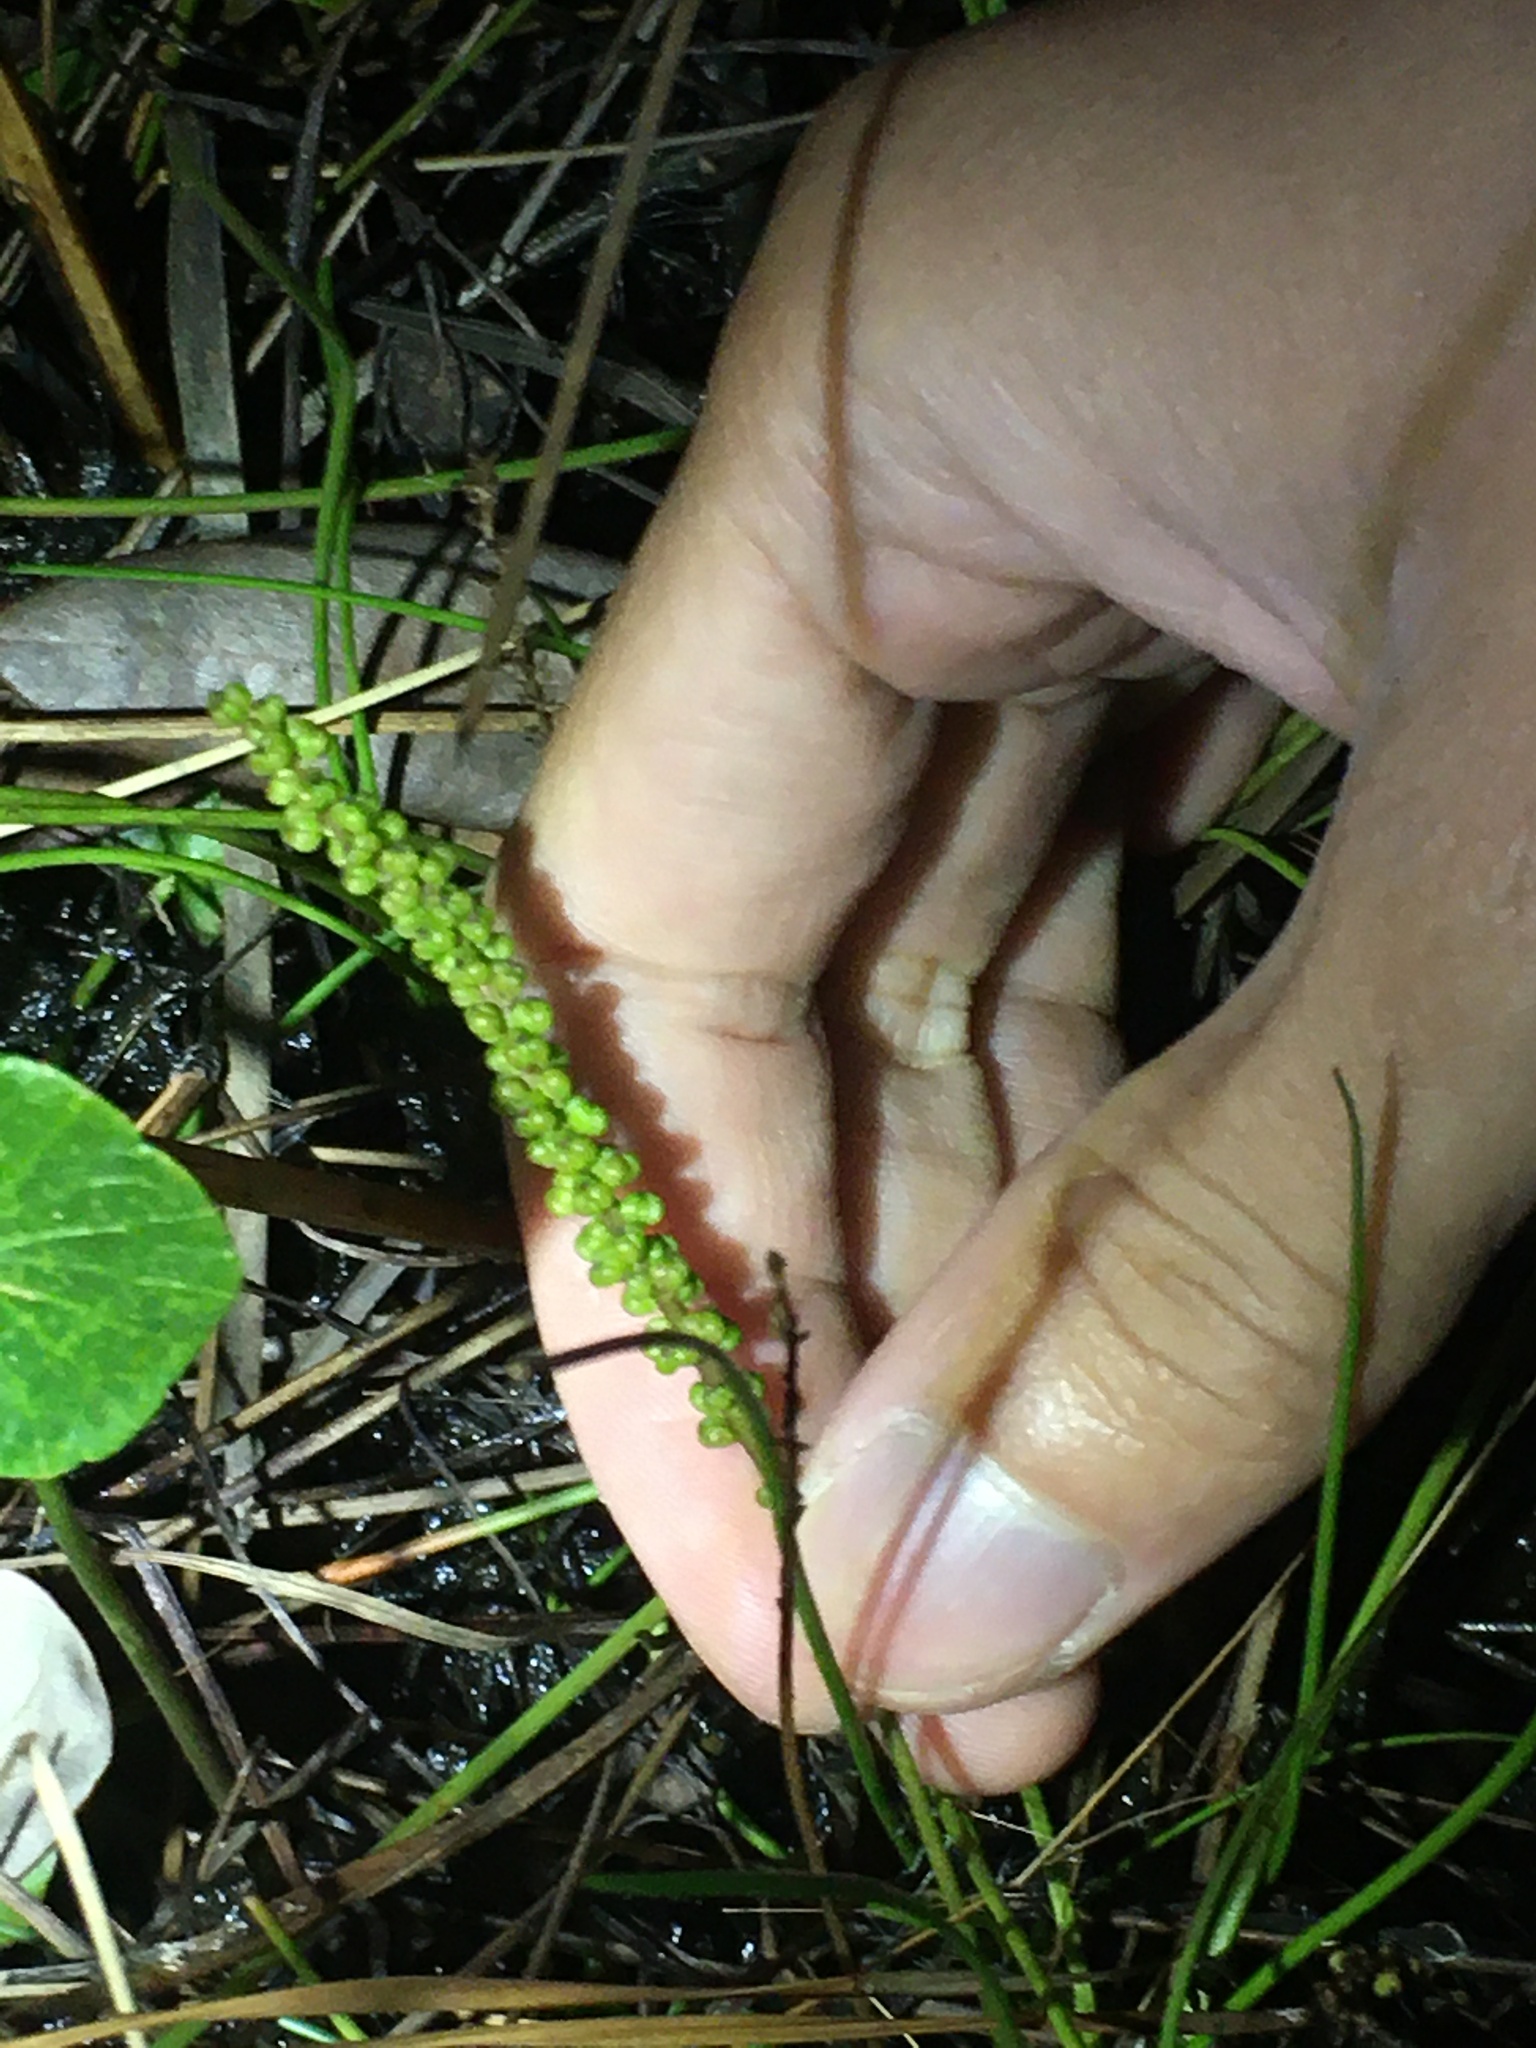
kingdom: Plantae
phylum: Tracheophyta
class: Liliopsida
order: Alismatales
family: Juncaginaceae
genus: Triglochin
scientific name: Triglochin striata
